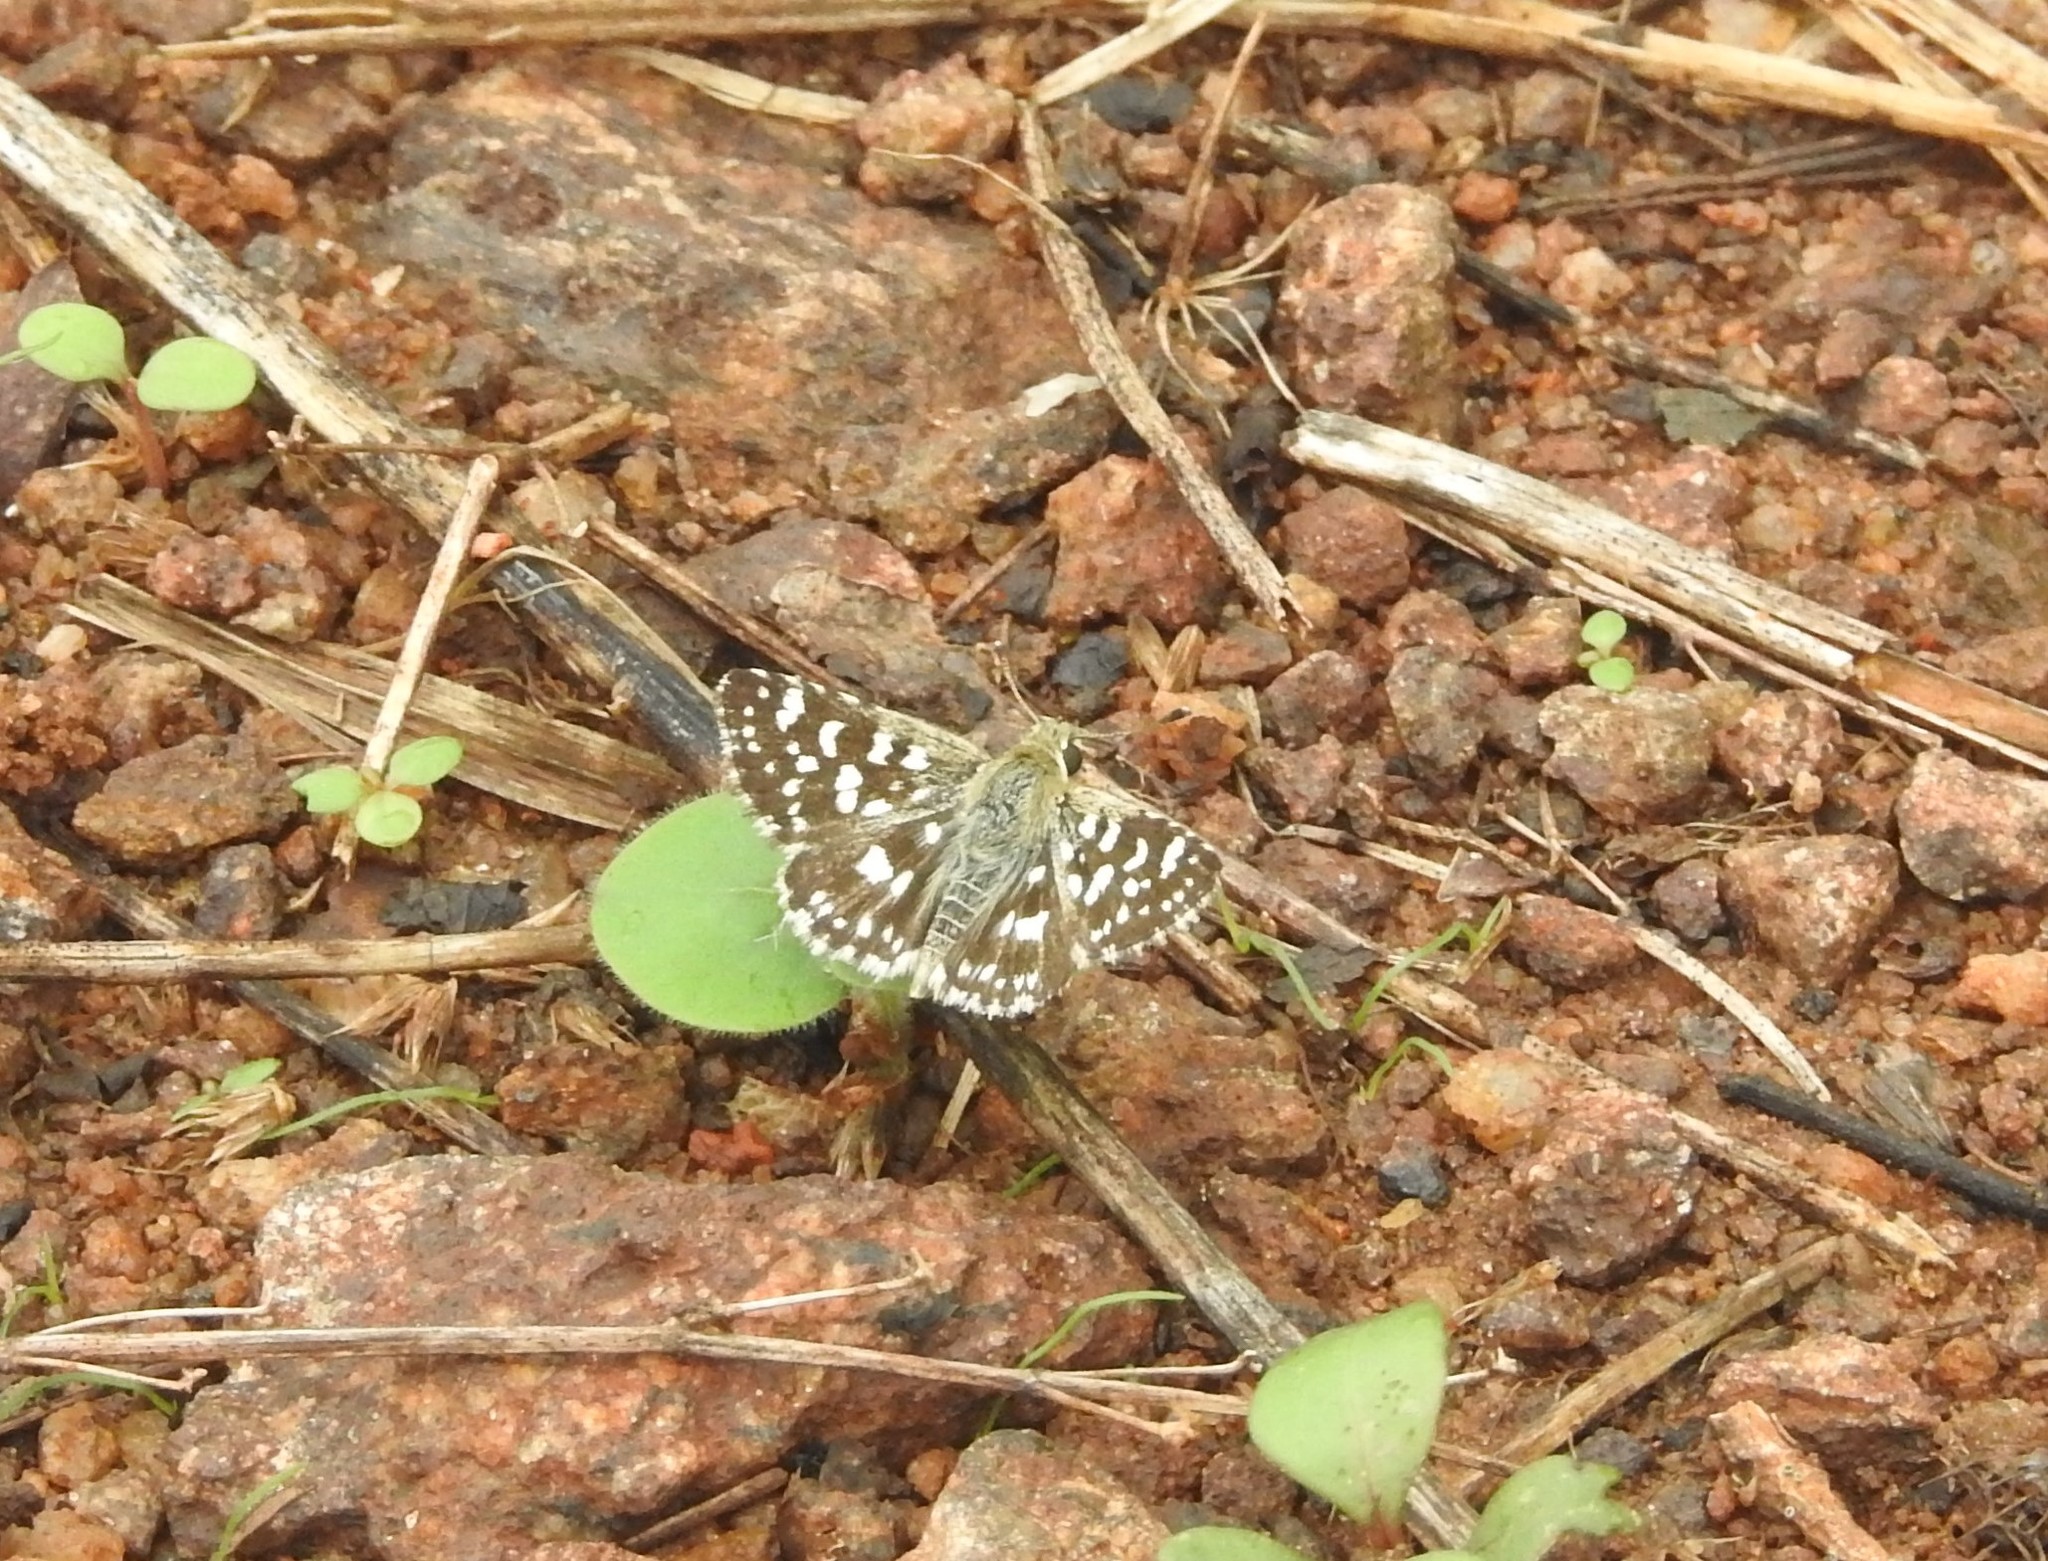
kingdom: Animalia
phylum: Arthropoda
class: Insecta
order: Lepidoptera
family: Hesperiidae
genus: Spialia
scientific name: Spialia galba
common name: Indian skipper
